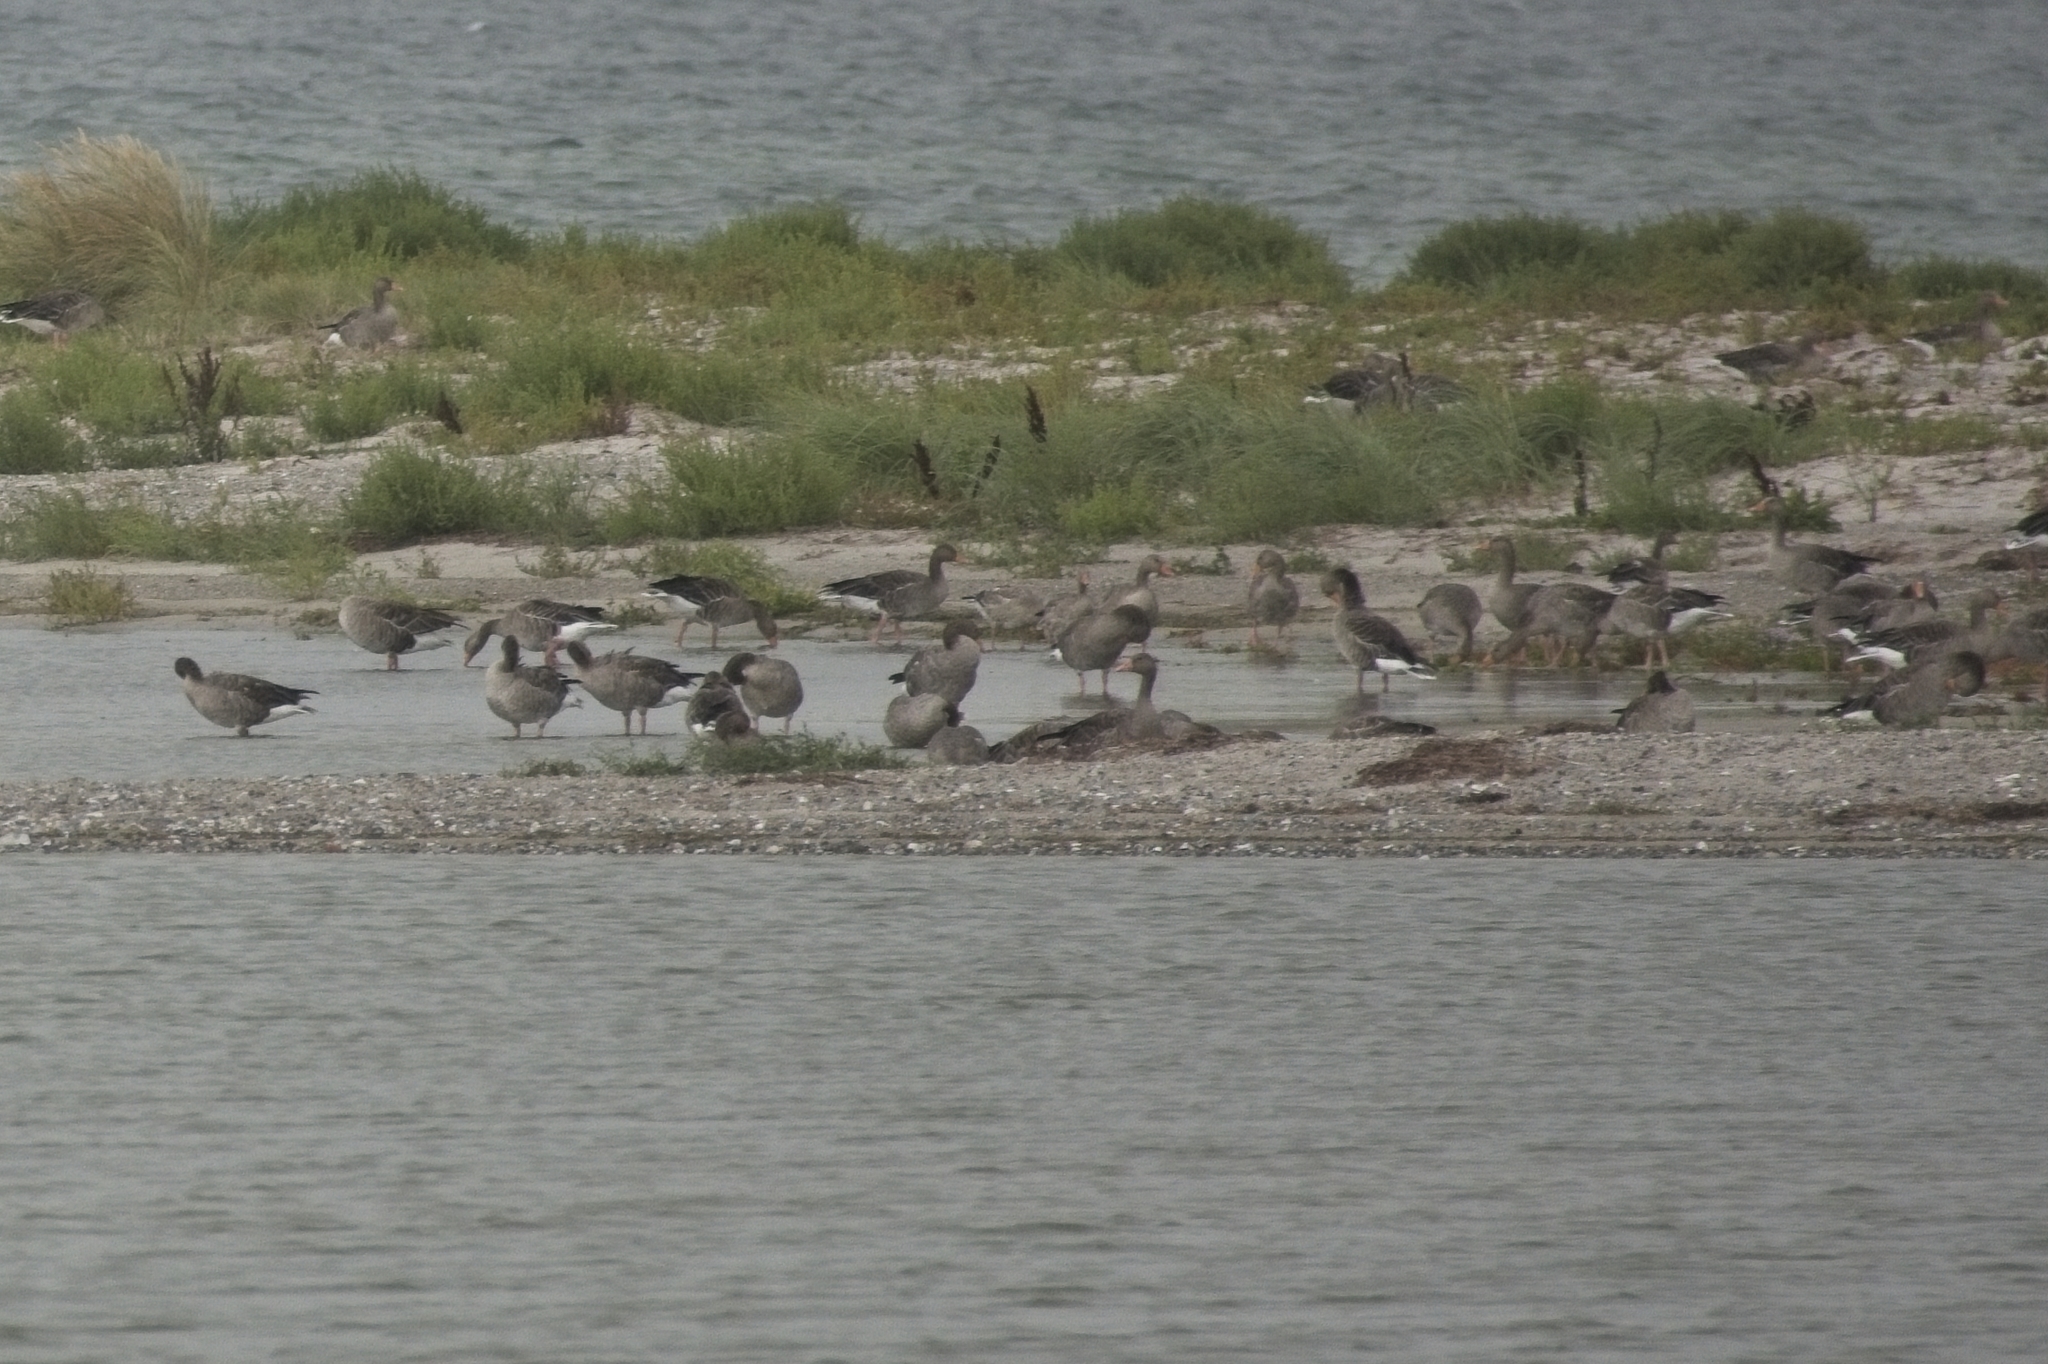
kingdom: Animalia
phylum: Chordata
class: Aves
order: Anseriformes
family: Anatidae
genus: Anser
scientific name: Anser anser
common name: Greylag goose
